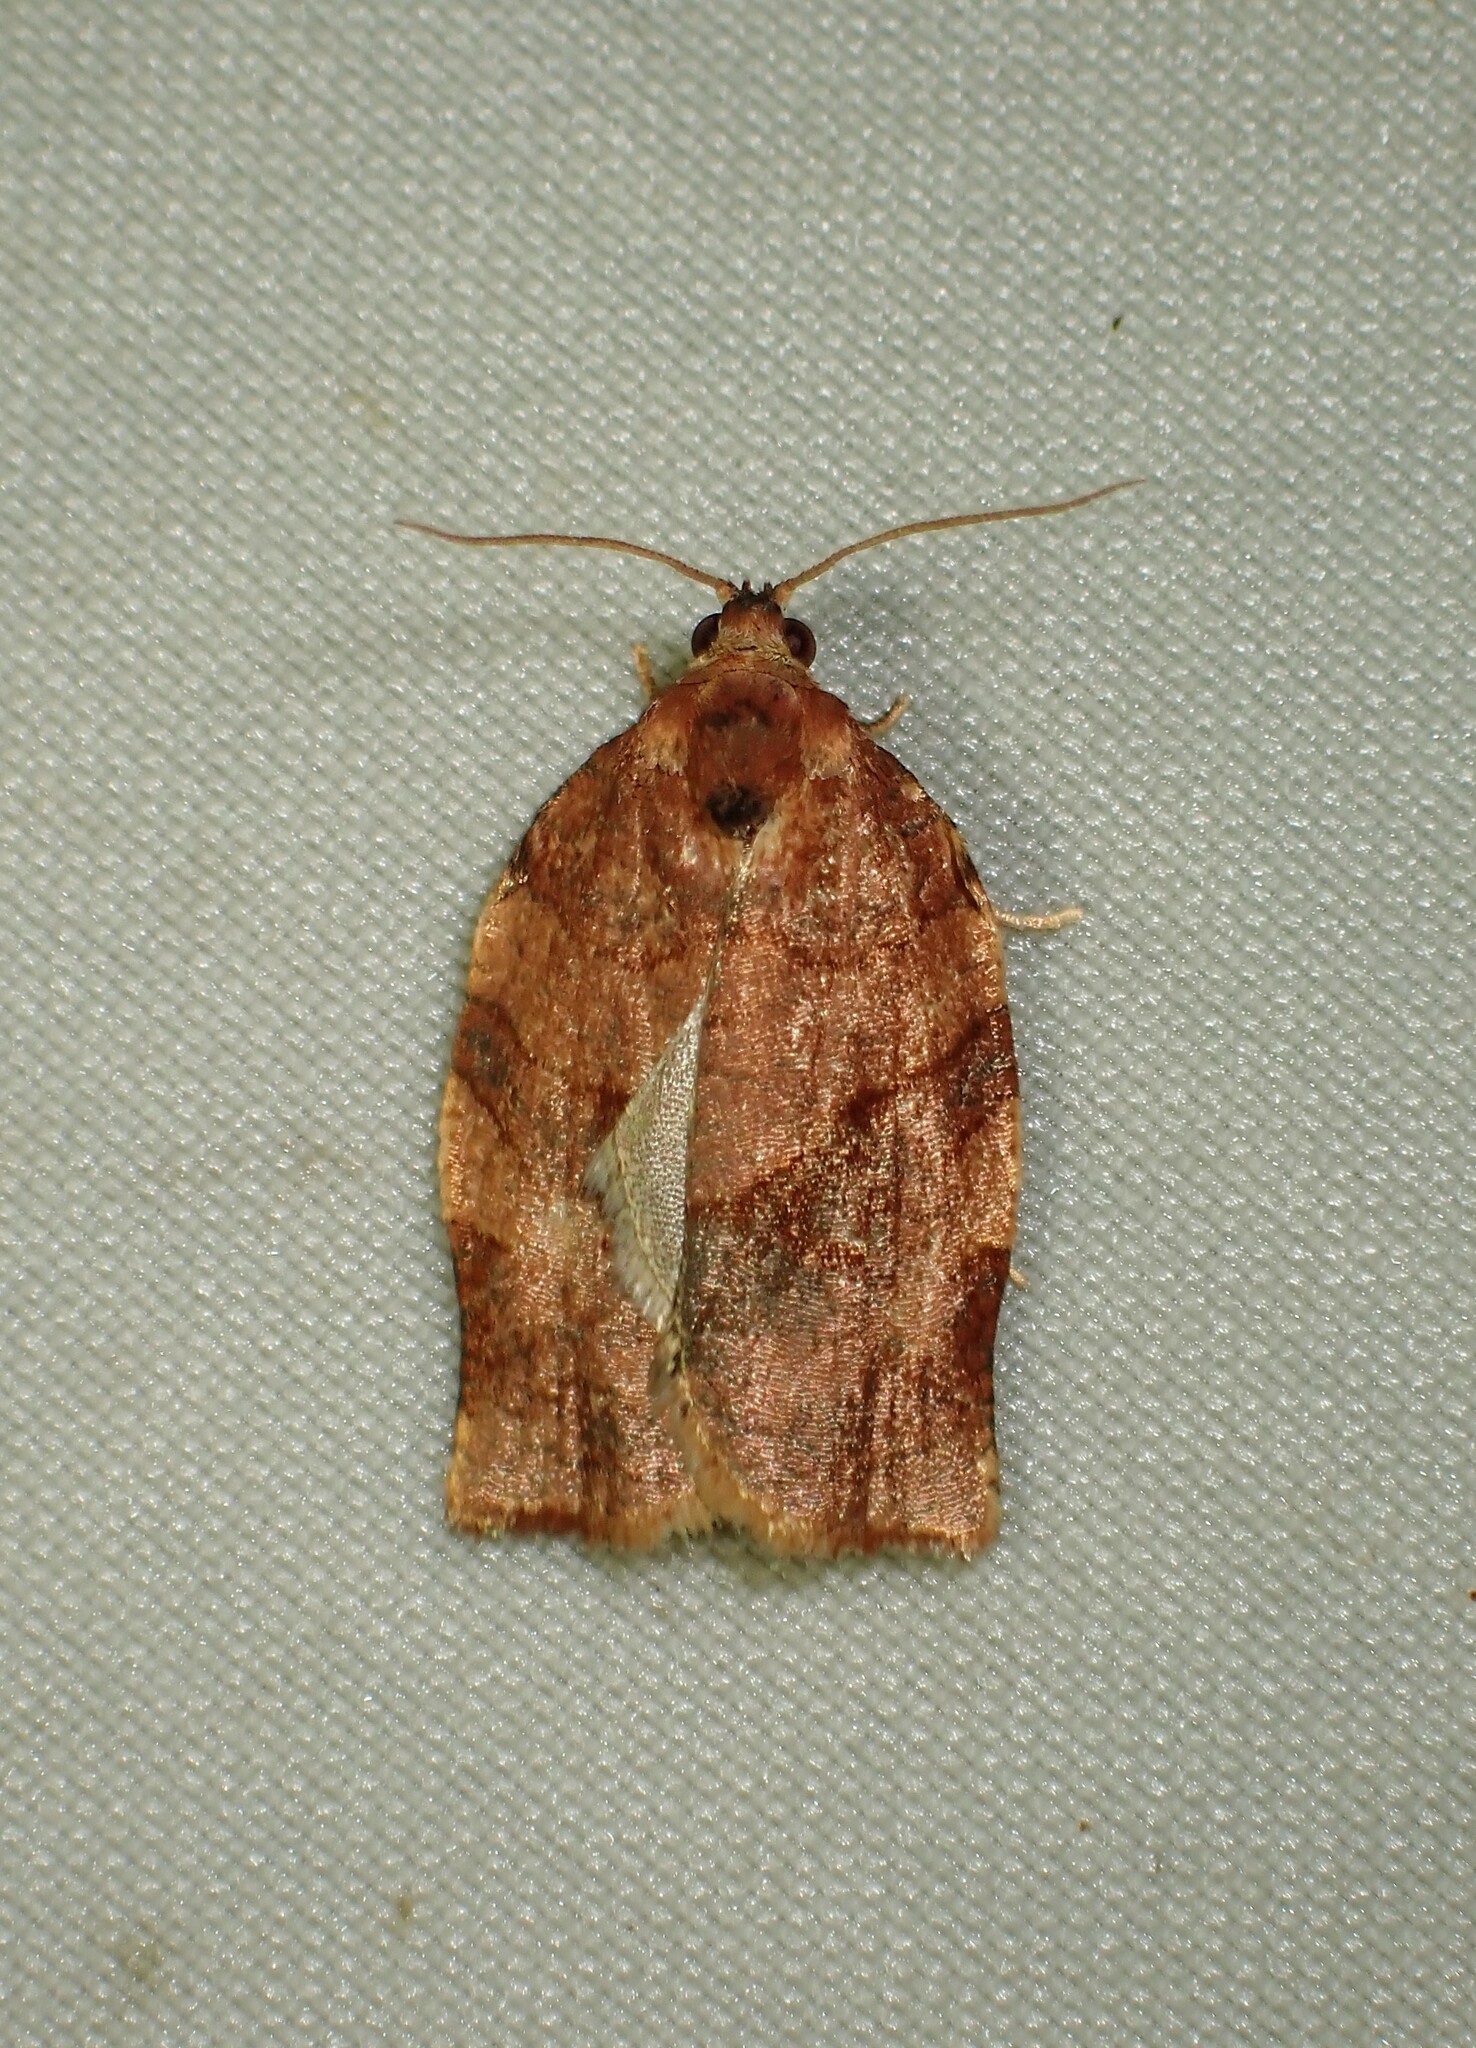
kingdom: Animalia
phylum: Arthropoda
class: Insecta
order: Lepidoptera
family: Tortricidae
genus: Choristoneura
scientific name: Choristoneura rosaceana
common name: Oblique-banded leafroller moth
